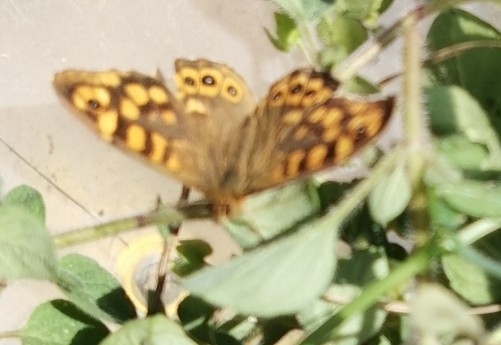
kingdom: Animalia
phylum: Arthropoda
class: Insecta
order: Lepidoptera
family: Nymphalidae
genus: Pararge
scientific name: Pararge aegeria
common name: Speckled wood
